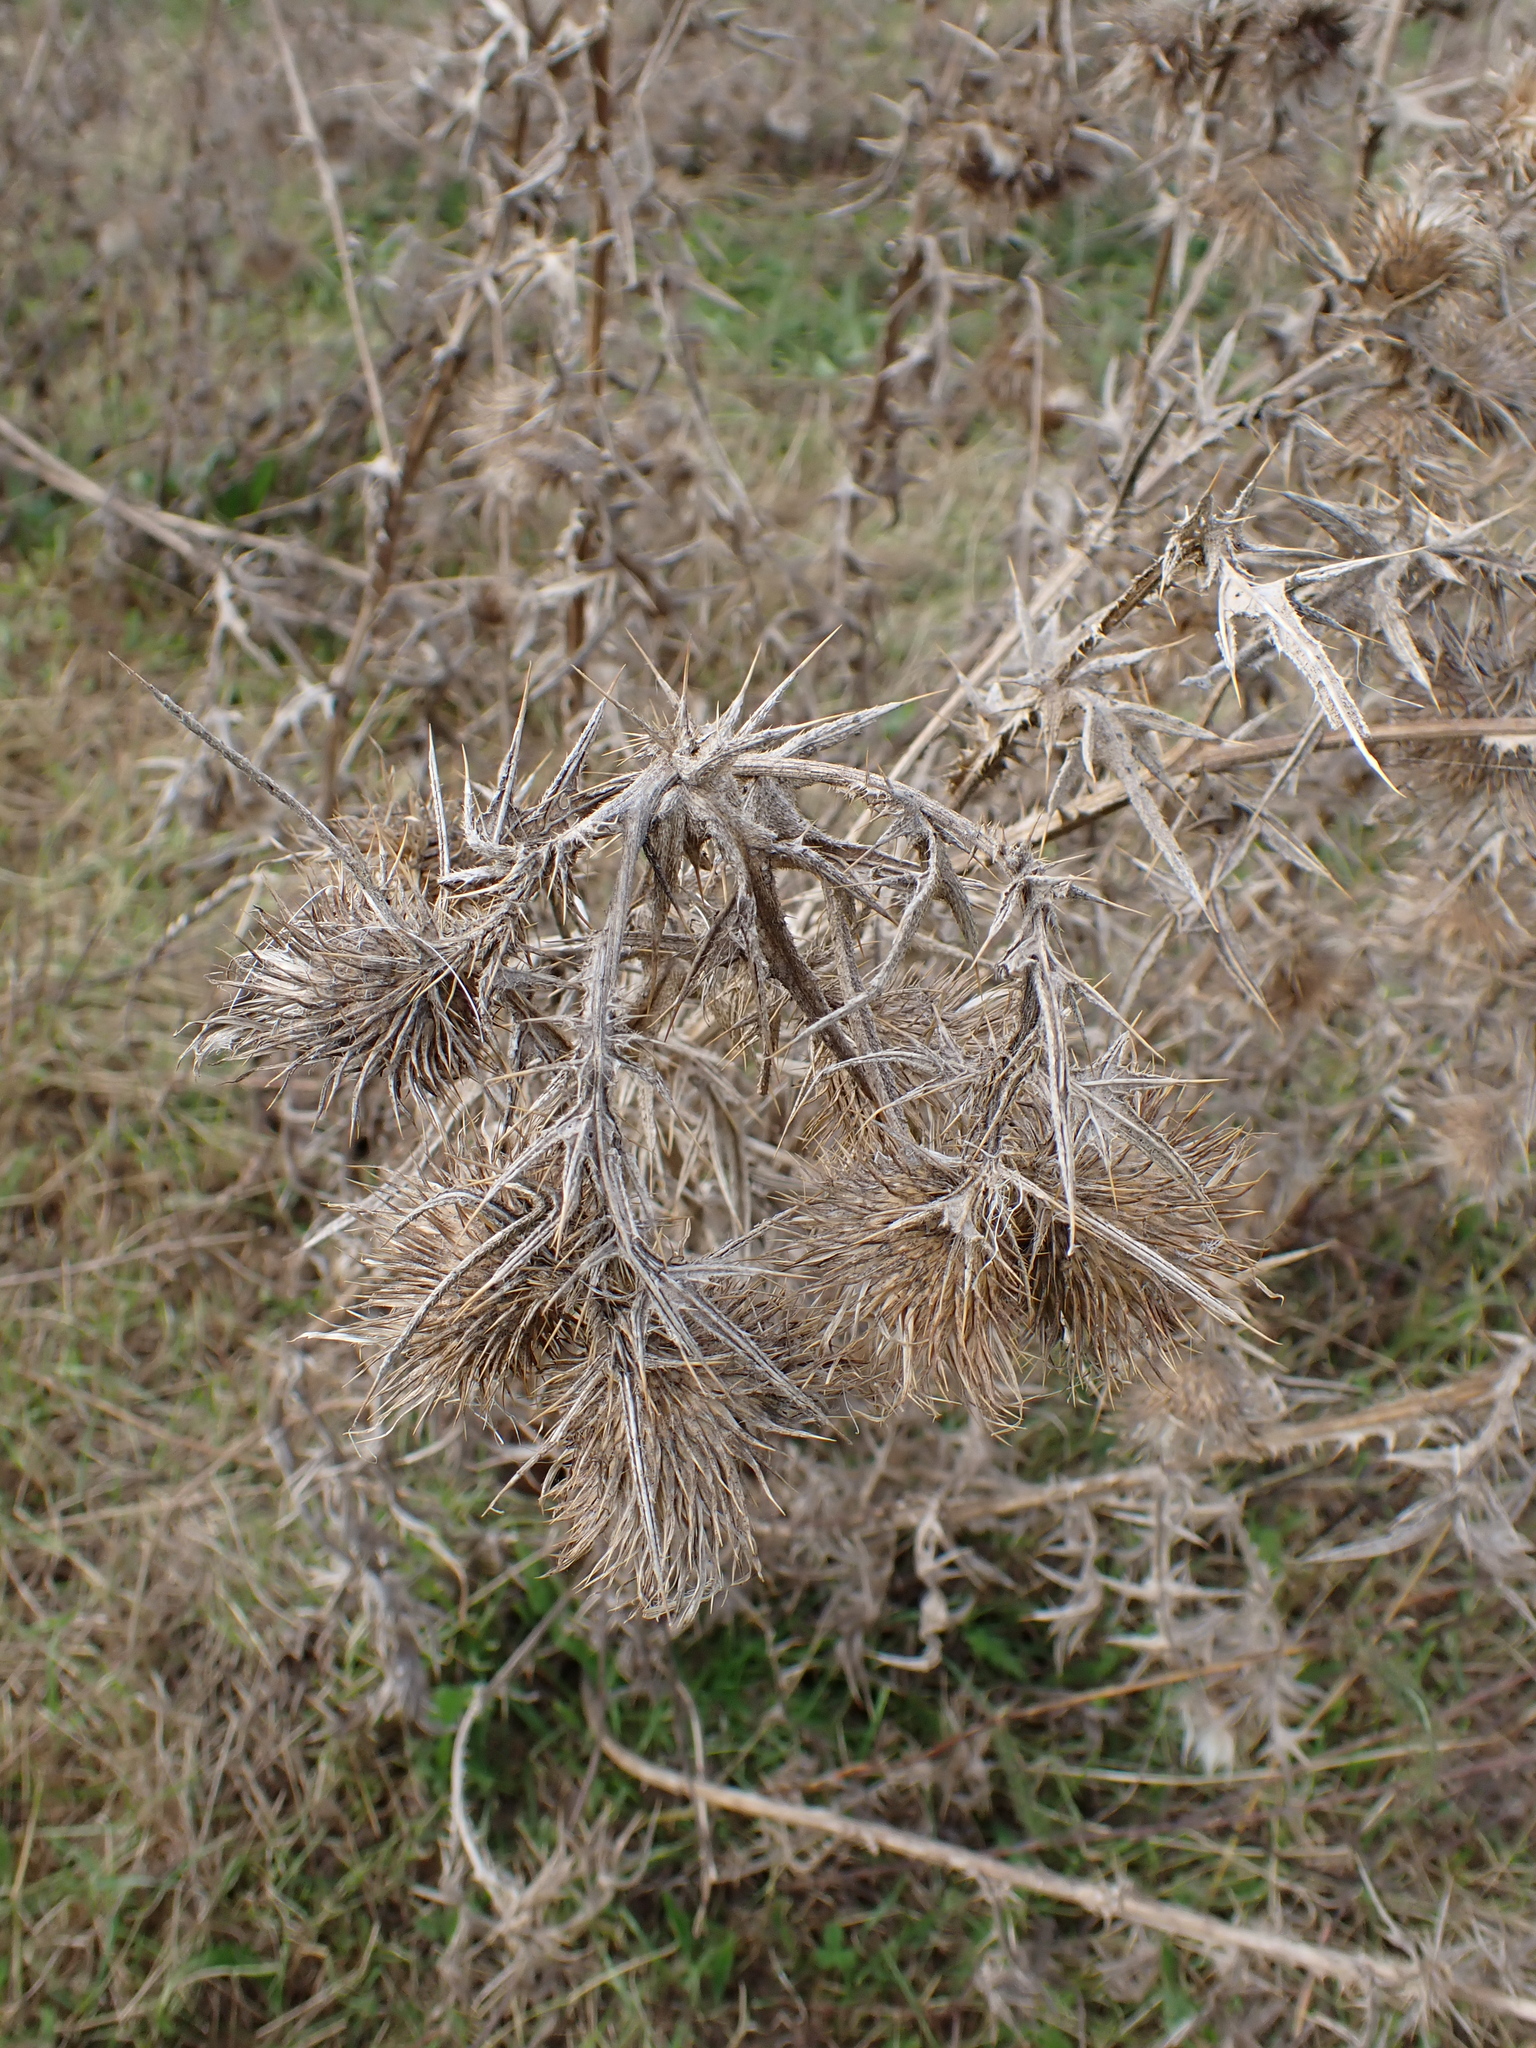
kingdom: Plantae
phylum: Tracheophyta
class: Magnoliopsida
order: Asterales
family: Asteraceae
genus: Cirsium
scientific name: Cirsium vulgare
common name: Bull thistle
